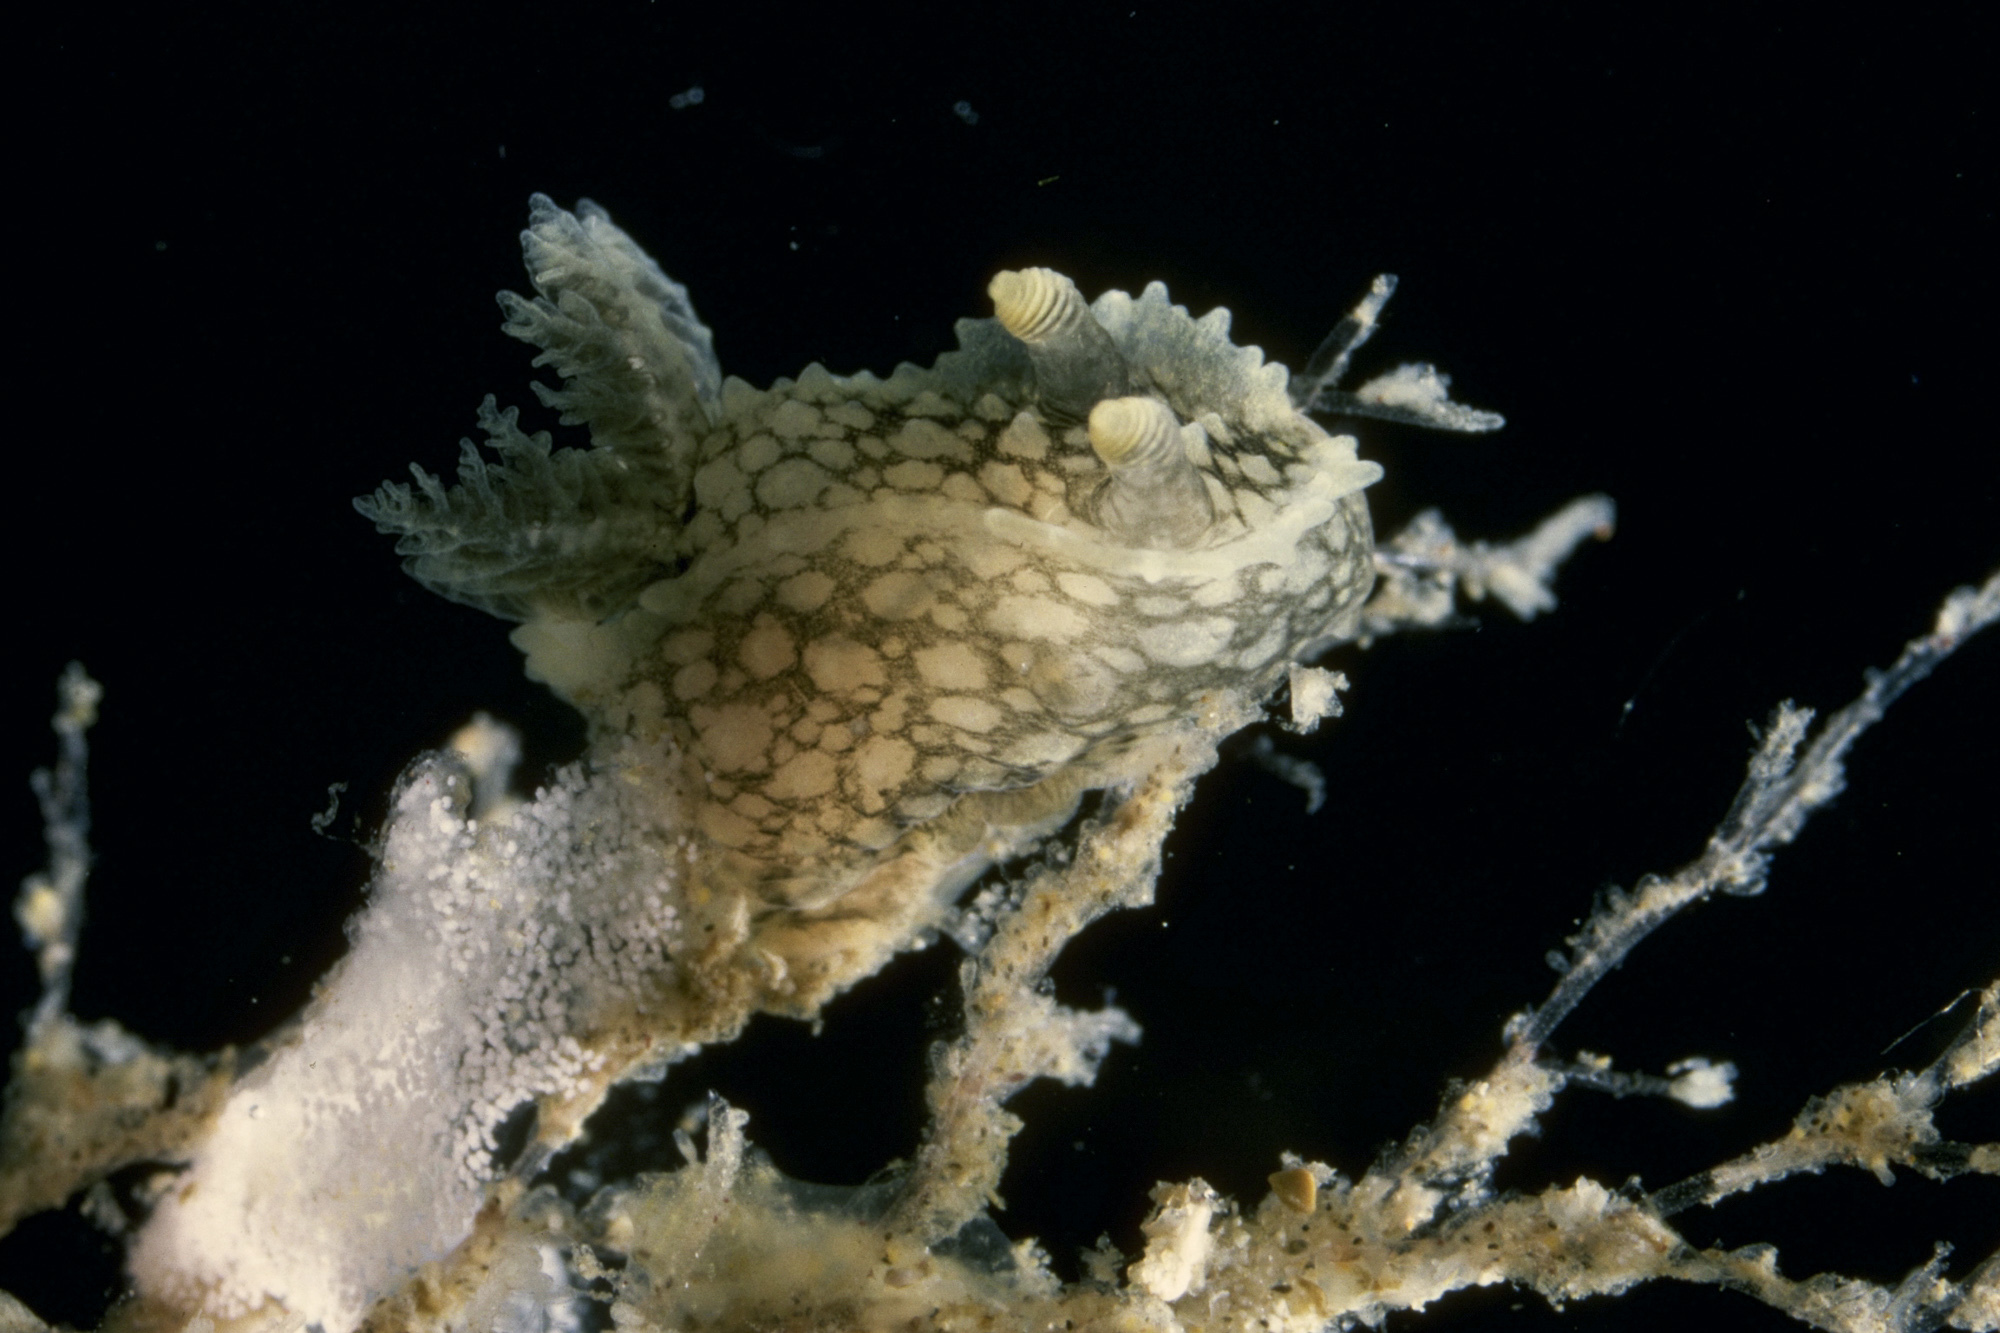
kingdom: Animalia
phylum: Mollusca
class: Gastropoda
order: Nudibranchia
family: Polyceridae
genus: Palio
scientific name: Palio nothus
